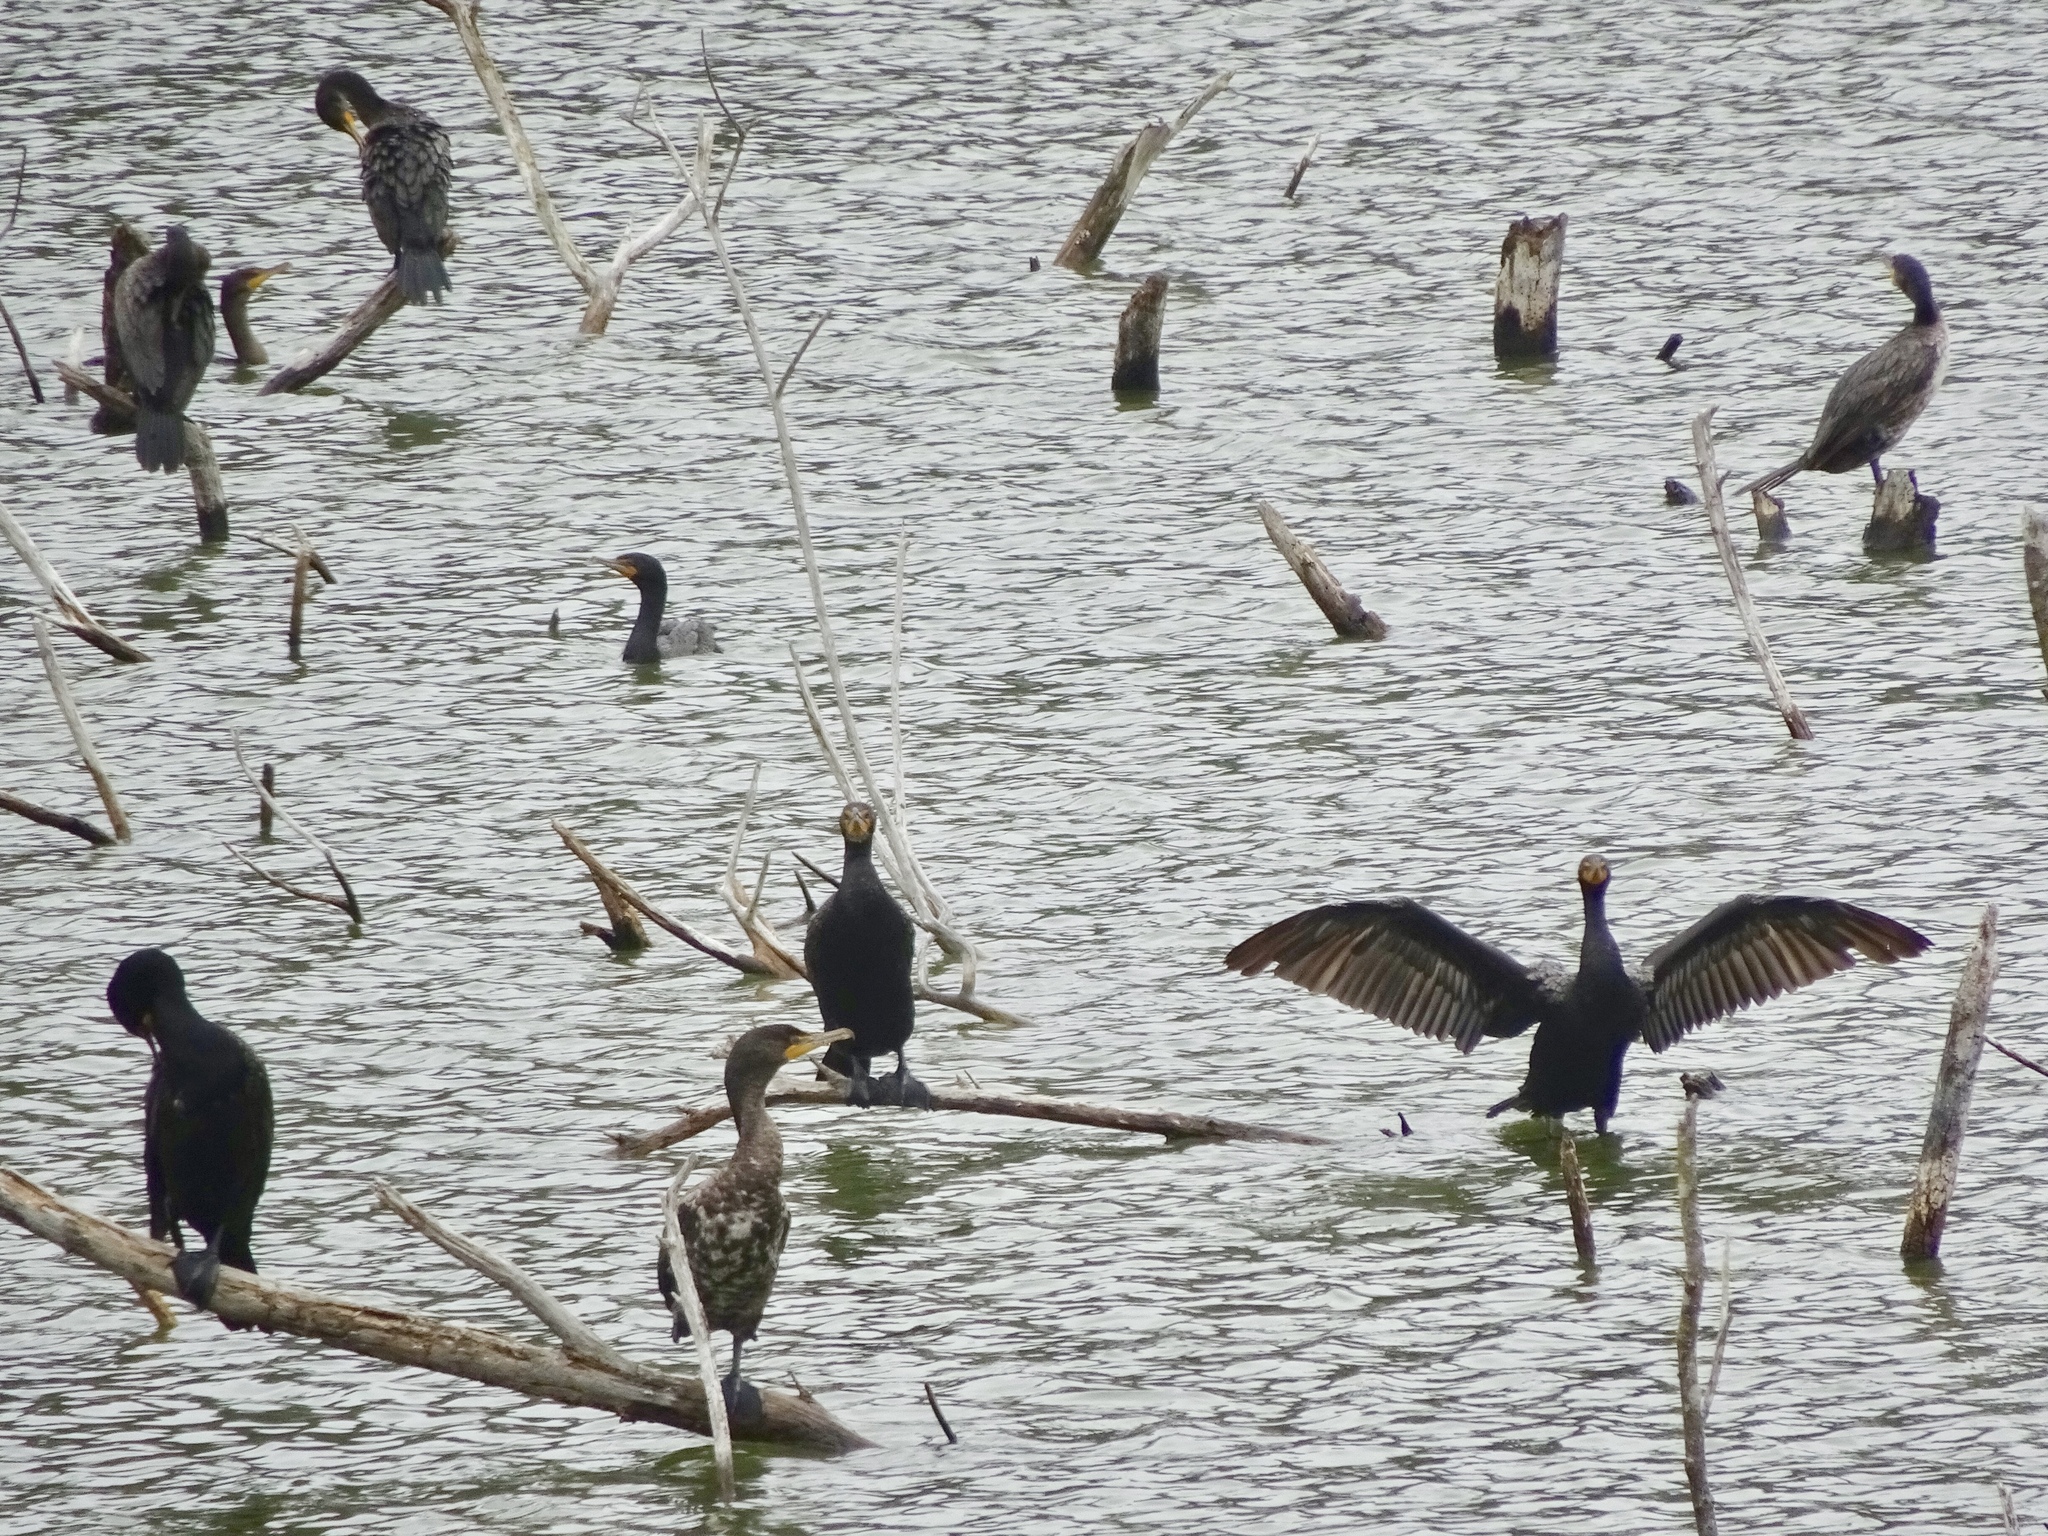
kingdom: Animalia
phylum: Chordata
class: Aves
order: Suliformes
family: Phalacrocoracidae
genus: Phalacrocorax
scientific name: Phalacrocorax auritus
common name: Double-crested cormorant
